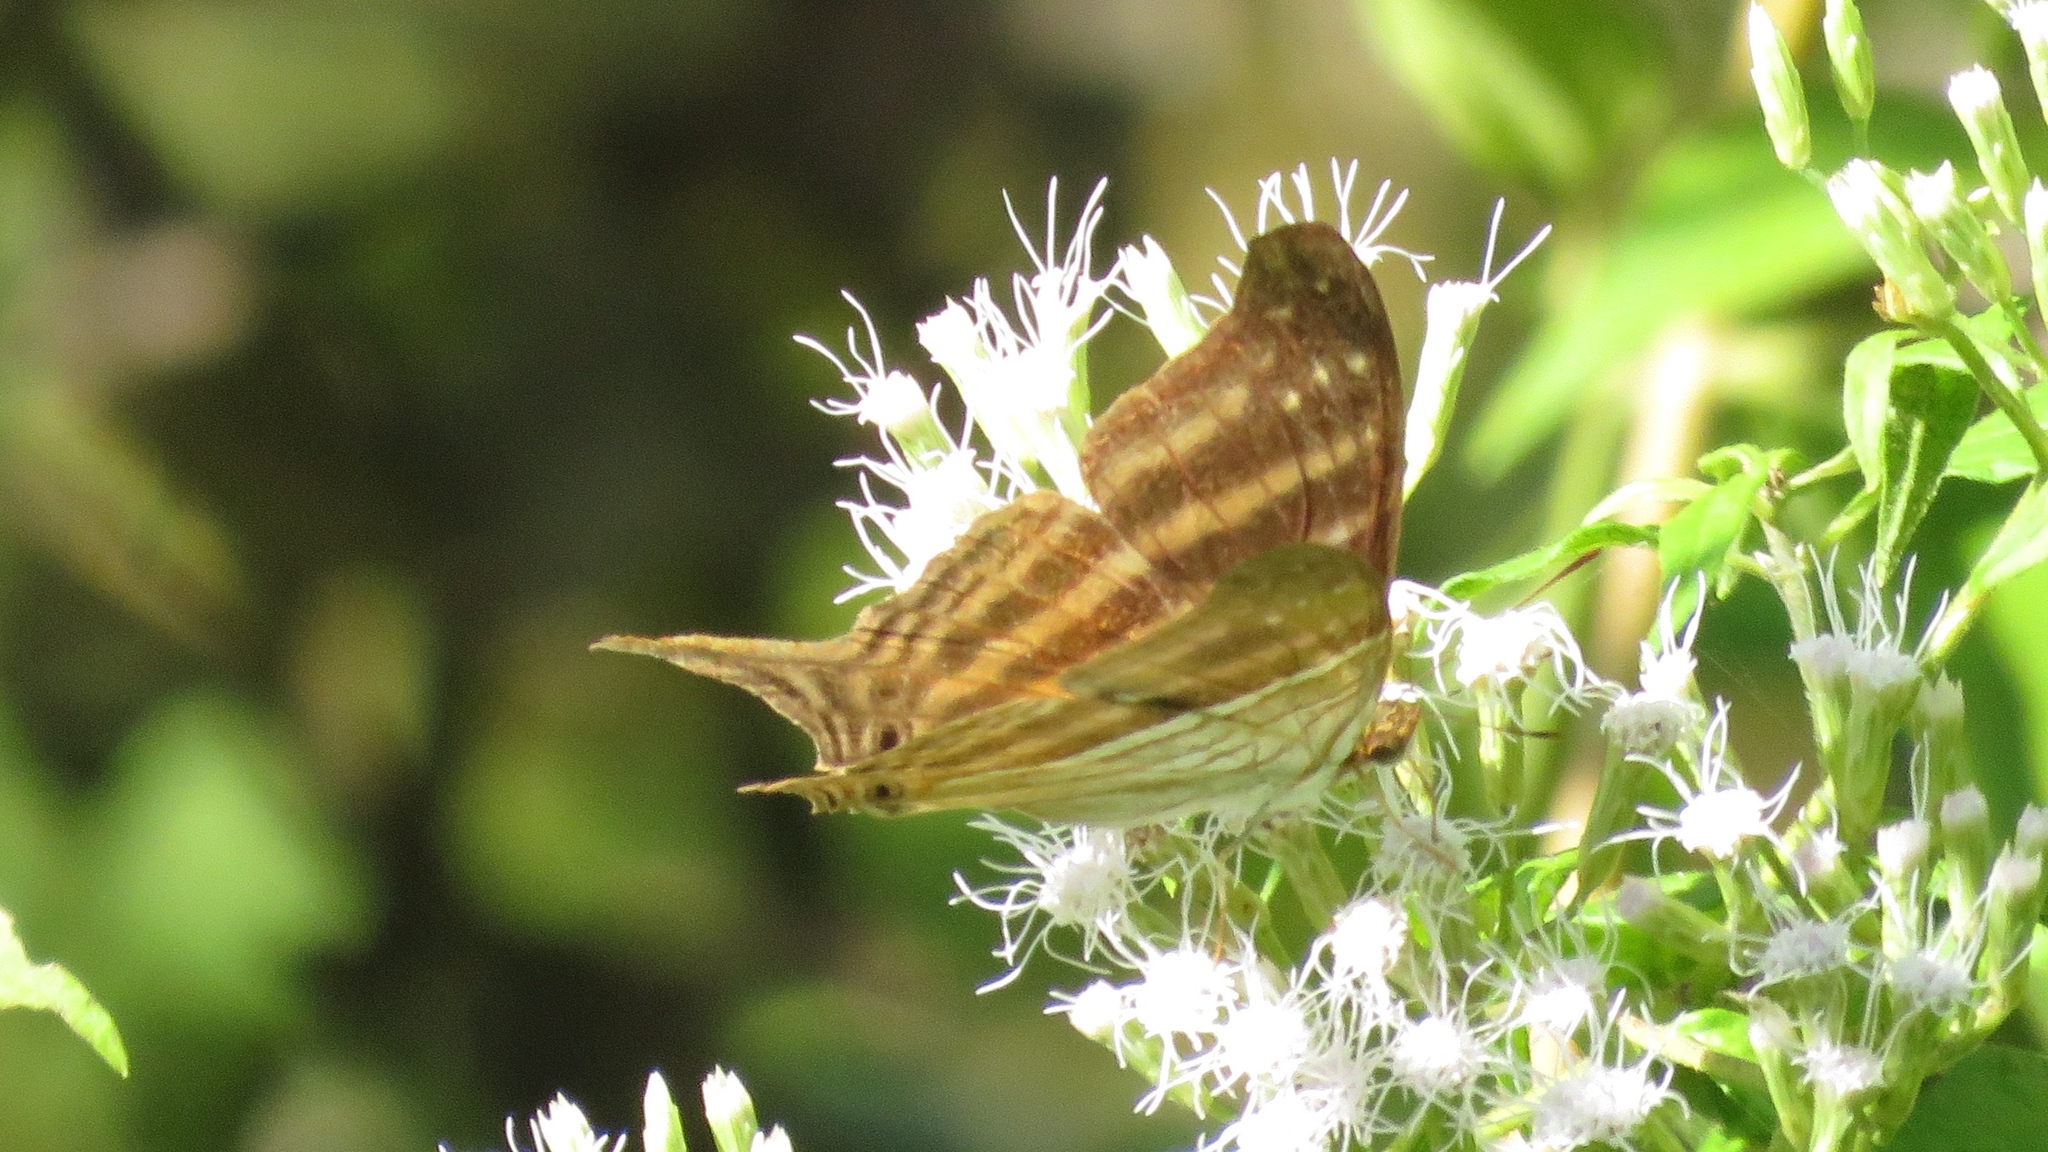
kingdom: Animalia
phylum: Arthropoda
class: Insecta
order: Lepidoptera
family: Nymphalidae
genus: Marpesia
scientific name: Marpesia chiron
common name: Many-banded daggerwing
